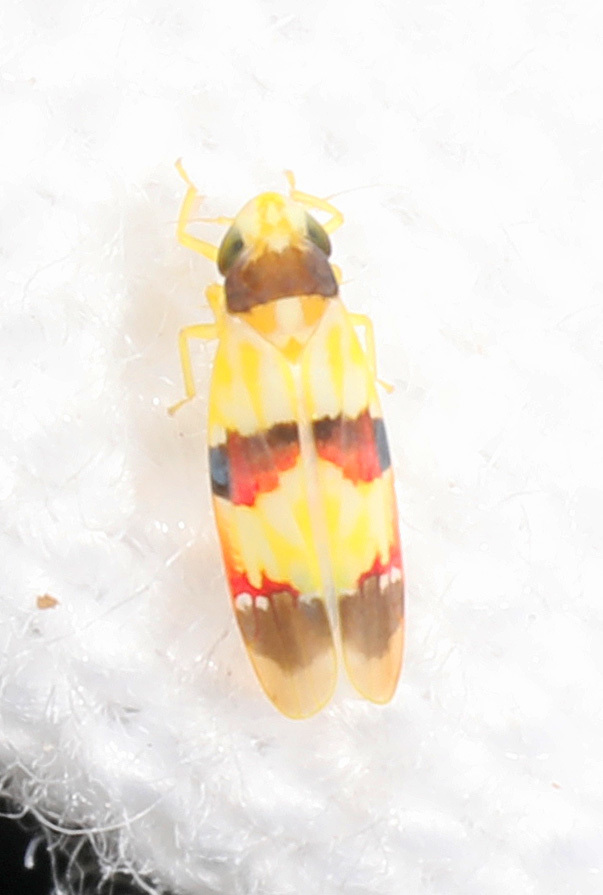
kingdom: Animalia
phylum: Arthropoda
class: Insecta
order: Hemiptera
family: Cicadellidae
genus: Erythroneura
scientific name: Erythroneura integra
